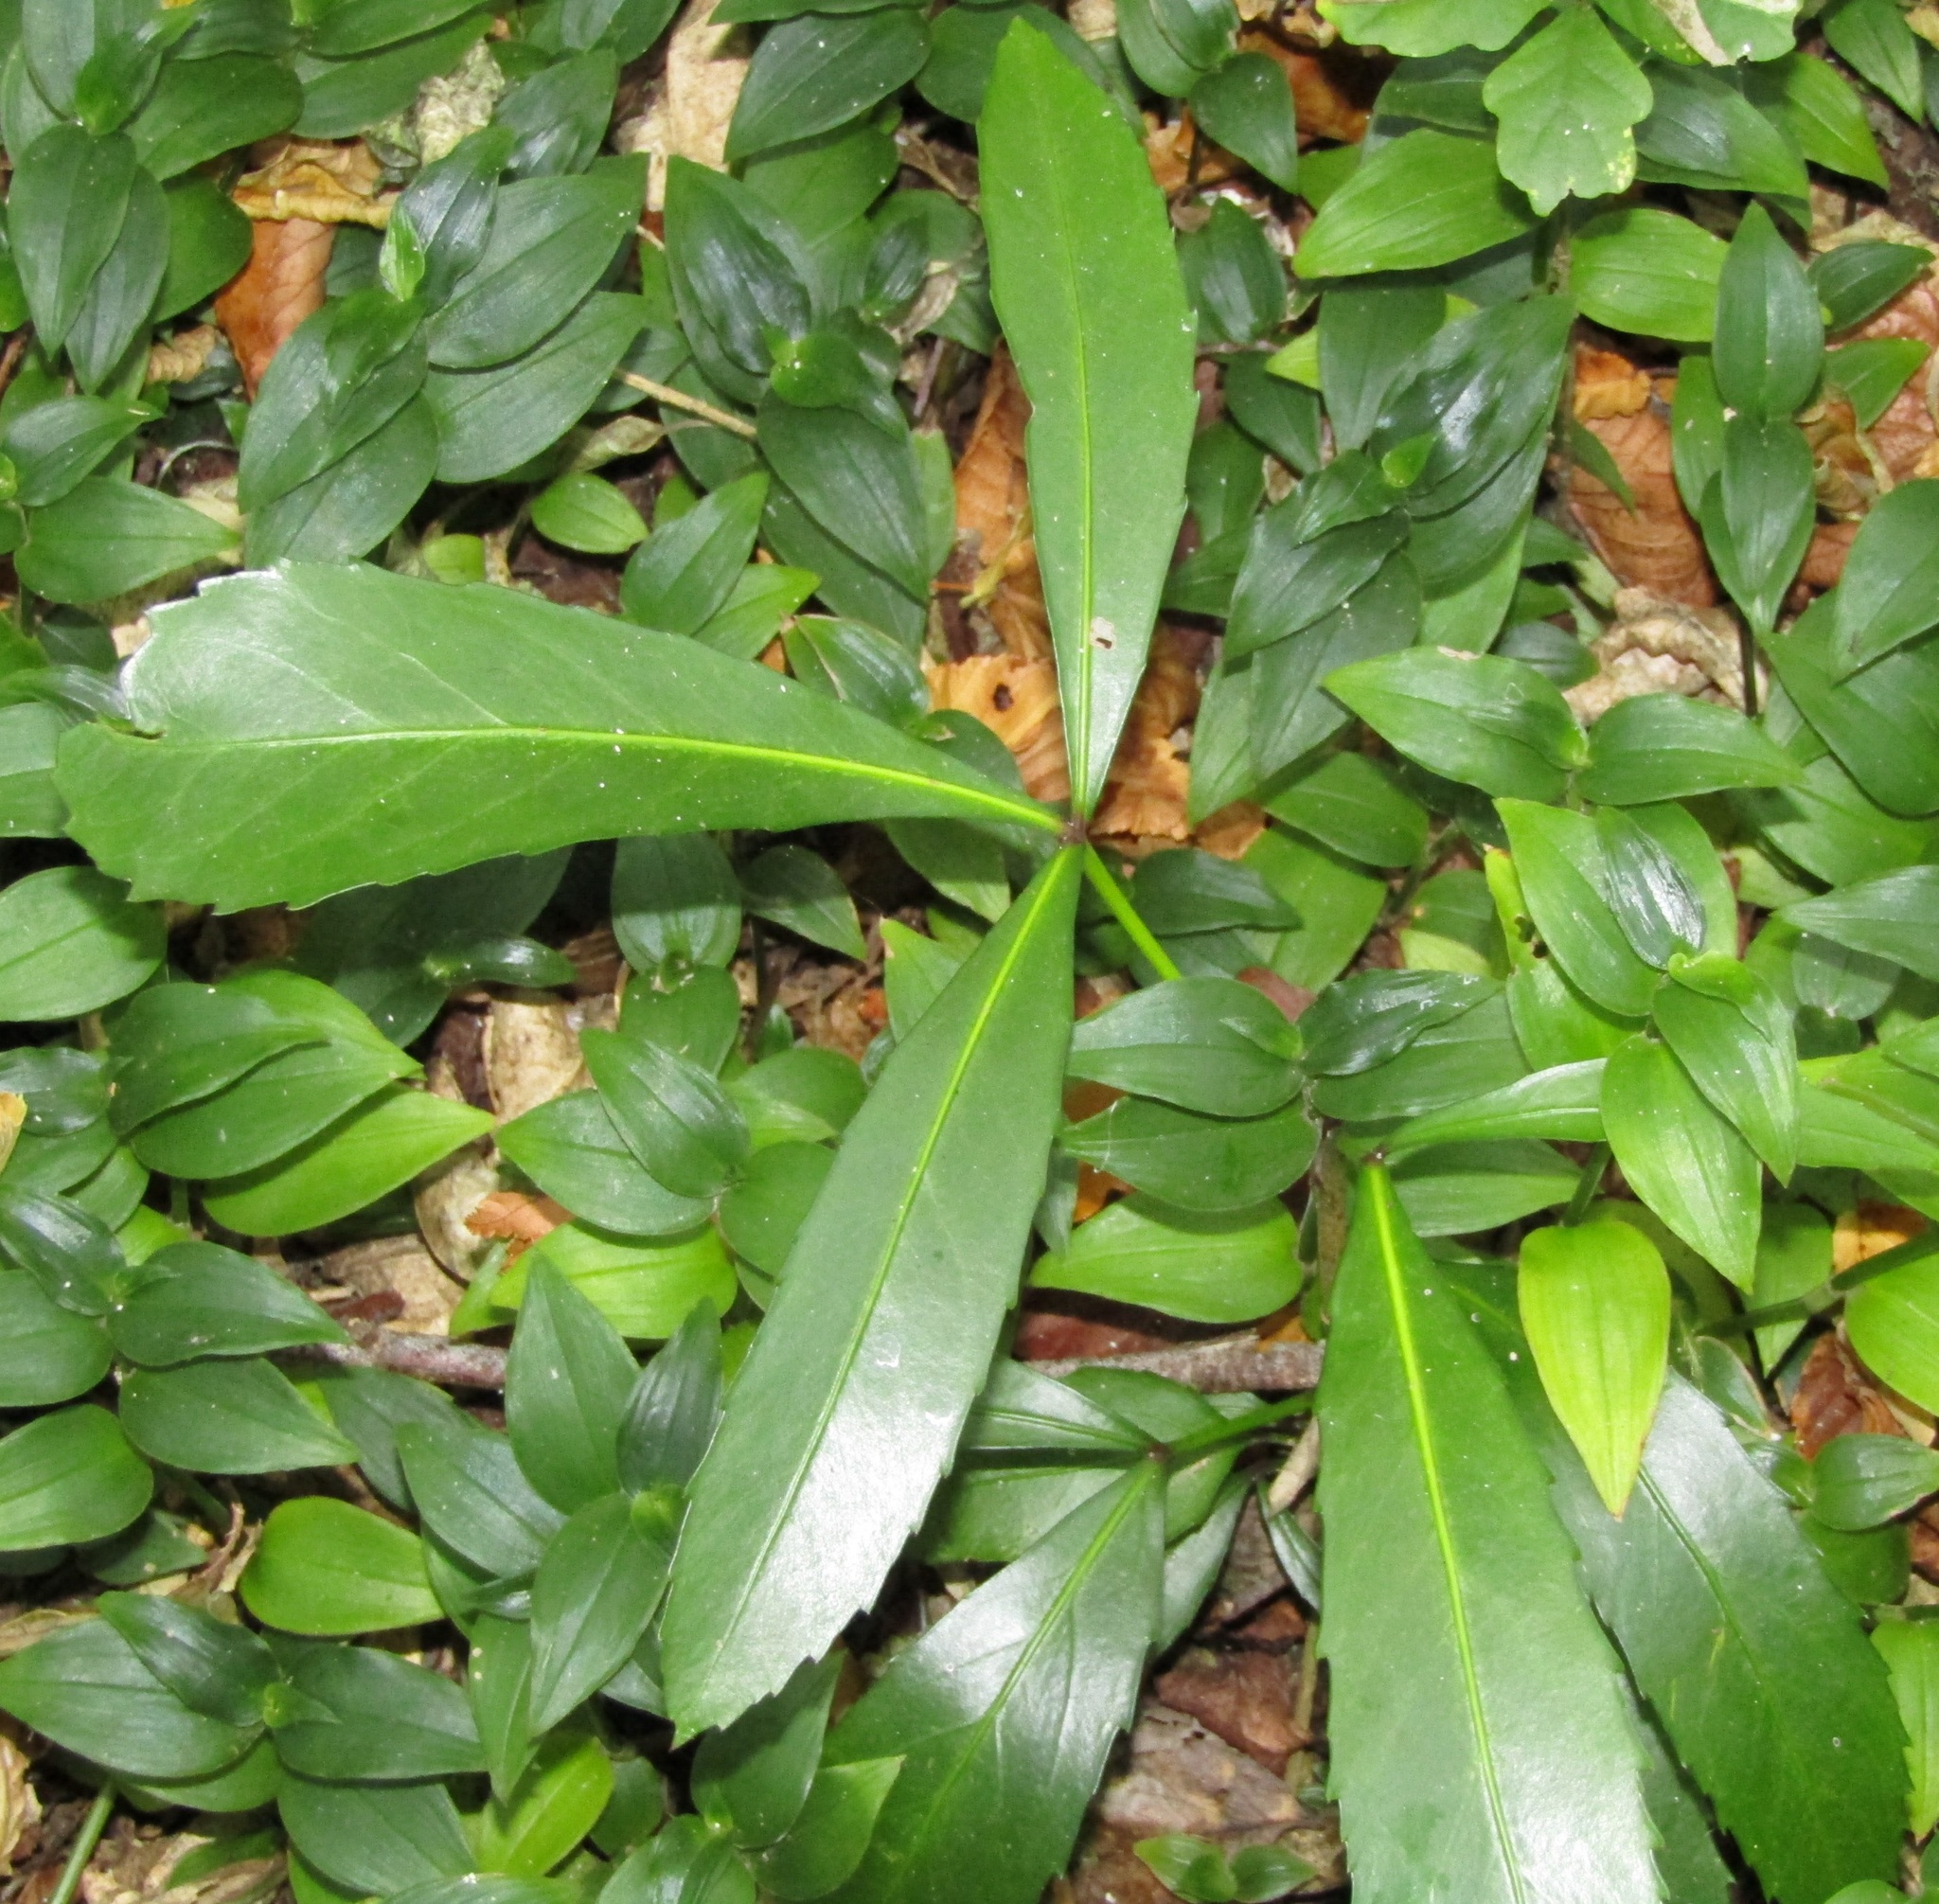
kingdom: Plantae
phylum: Tracheophyta
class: Magnoliopsida
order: Apiales
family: Araliaceae
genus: Pseudopanax
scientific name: Pseudopanax
